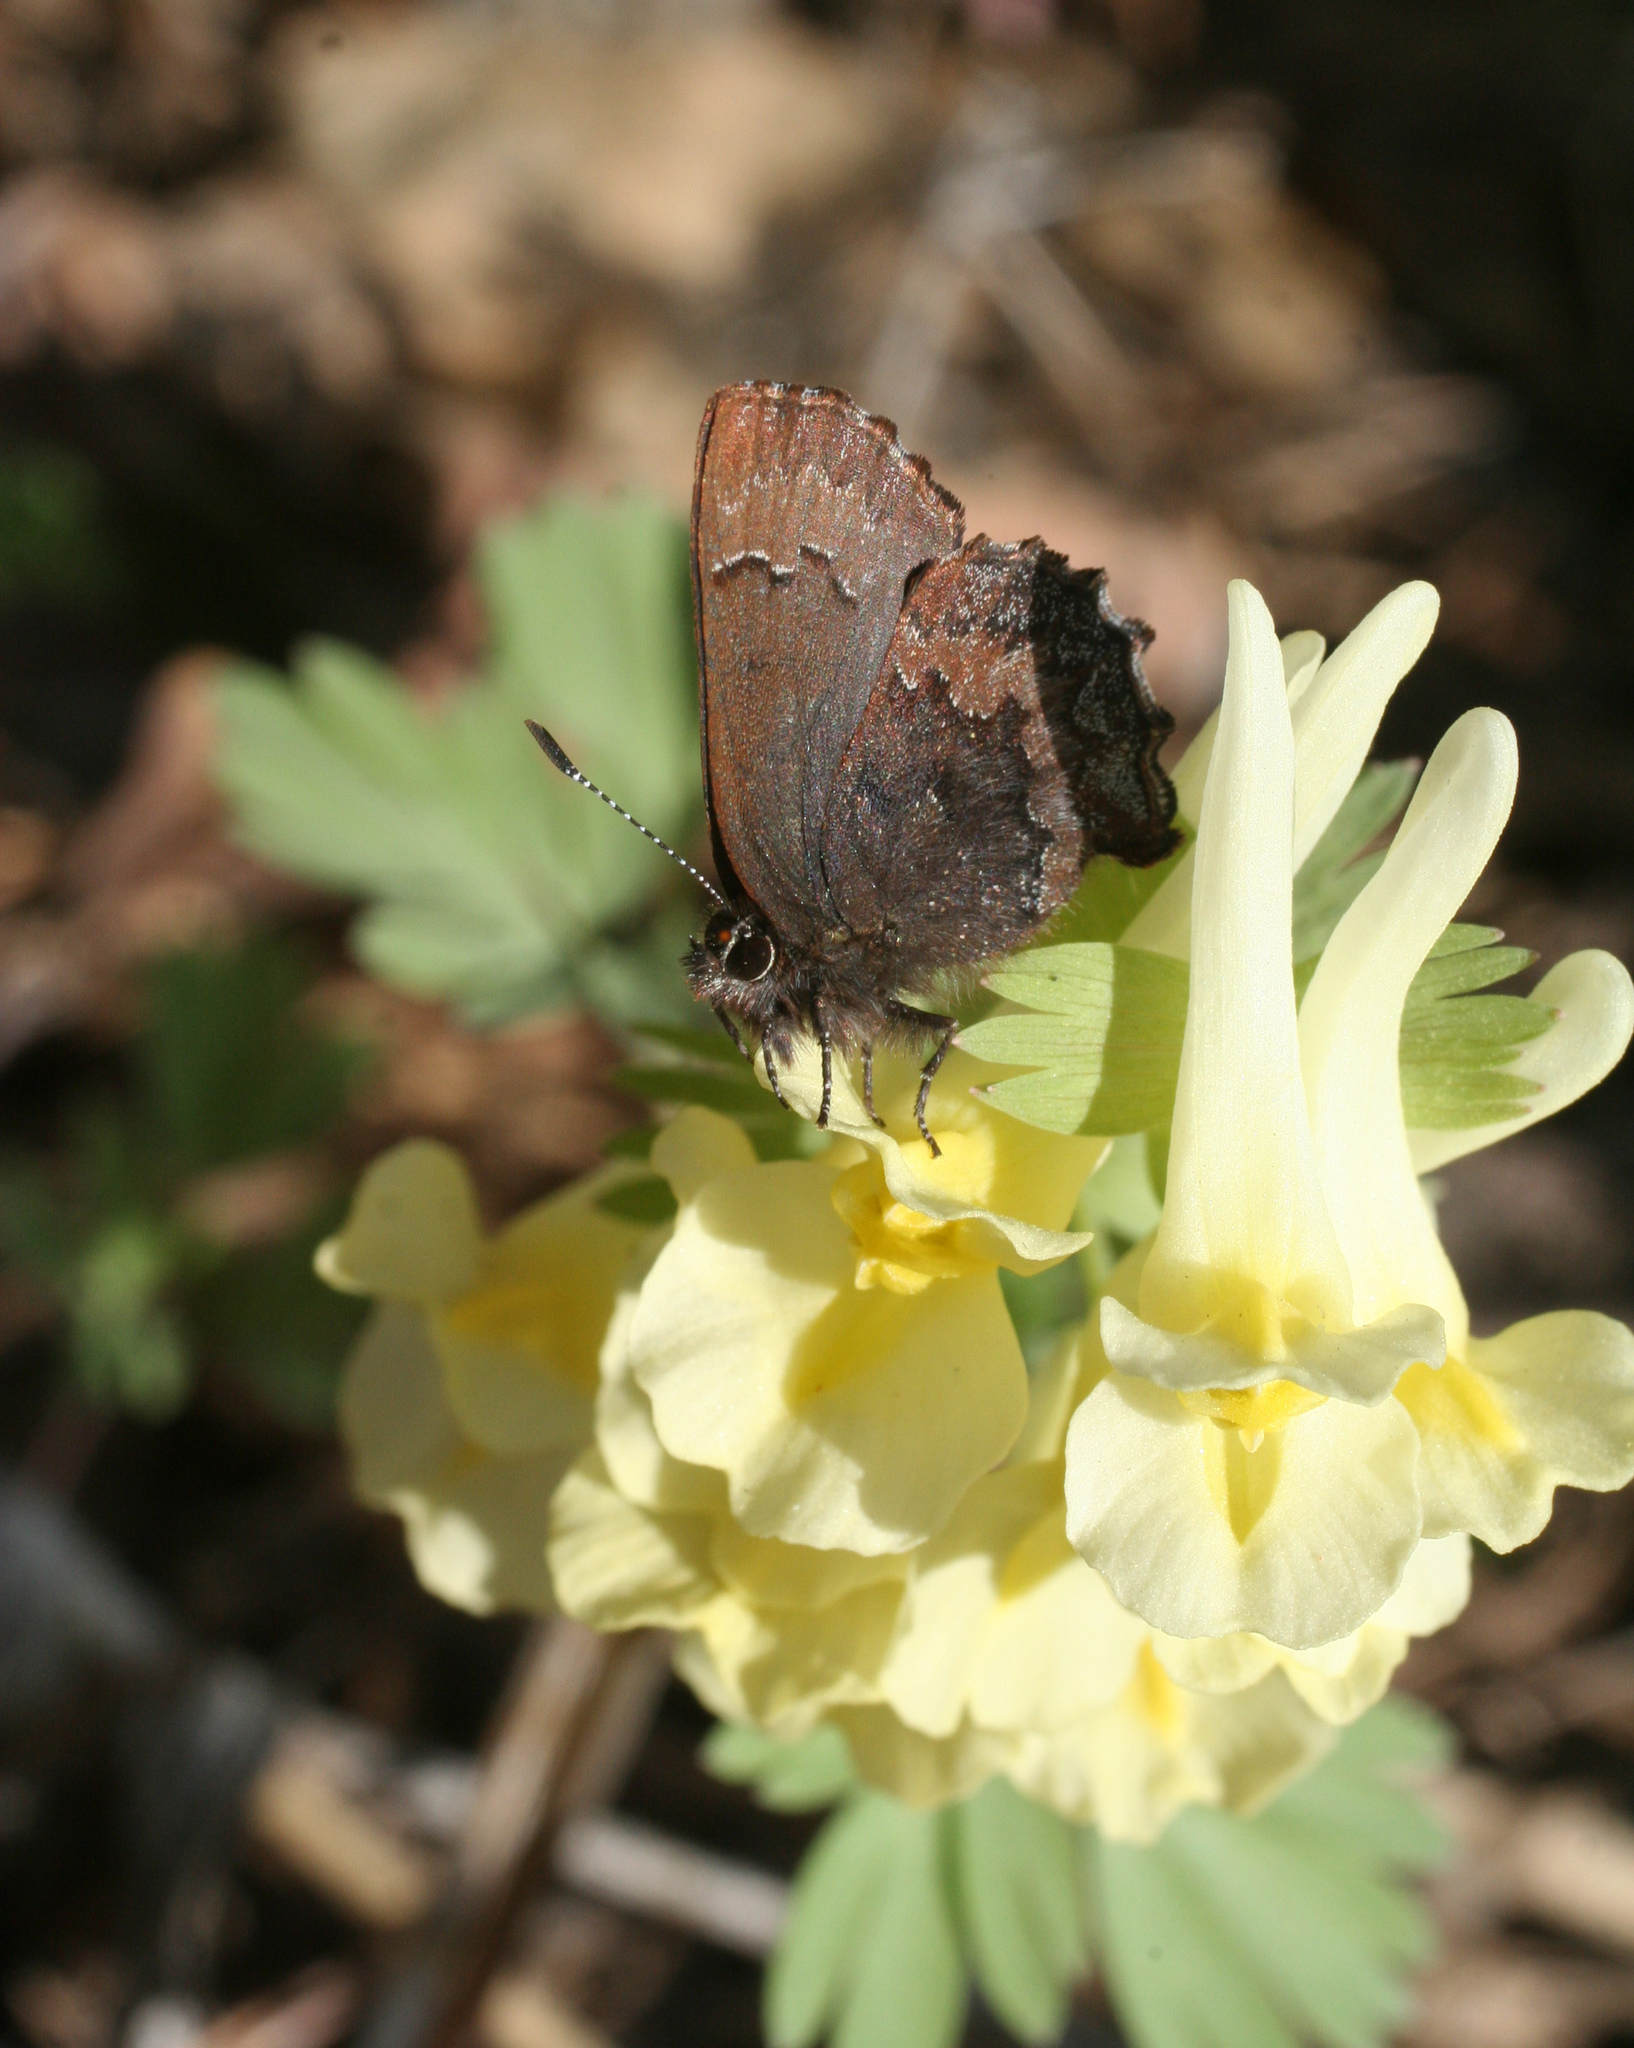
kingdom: Plantae
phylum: Tracheophyta
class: Magnoliopsida
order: Ranunculales
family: Papaveraceae
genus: Corydalis
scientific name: Corydalis bracteata
